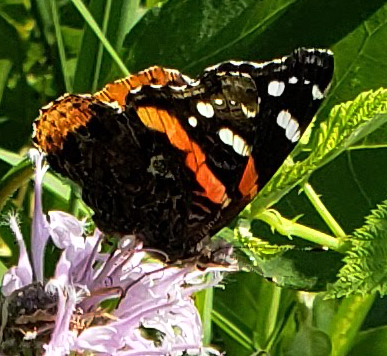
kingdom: Animalia
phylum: Arthropoda
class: Insecta
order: Lepidoptera
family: Nymphalidae
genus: Vanessa
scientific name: Vanessa atalanta
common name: Red admiral
